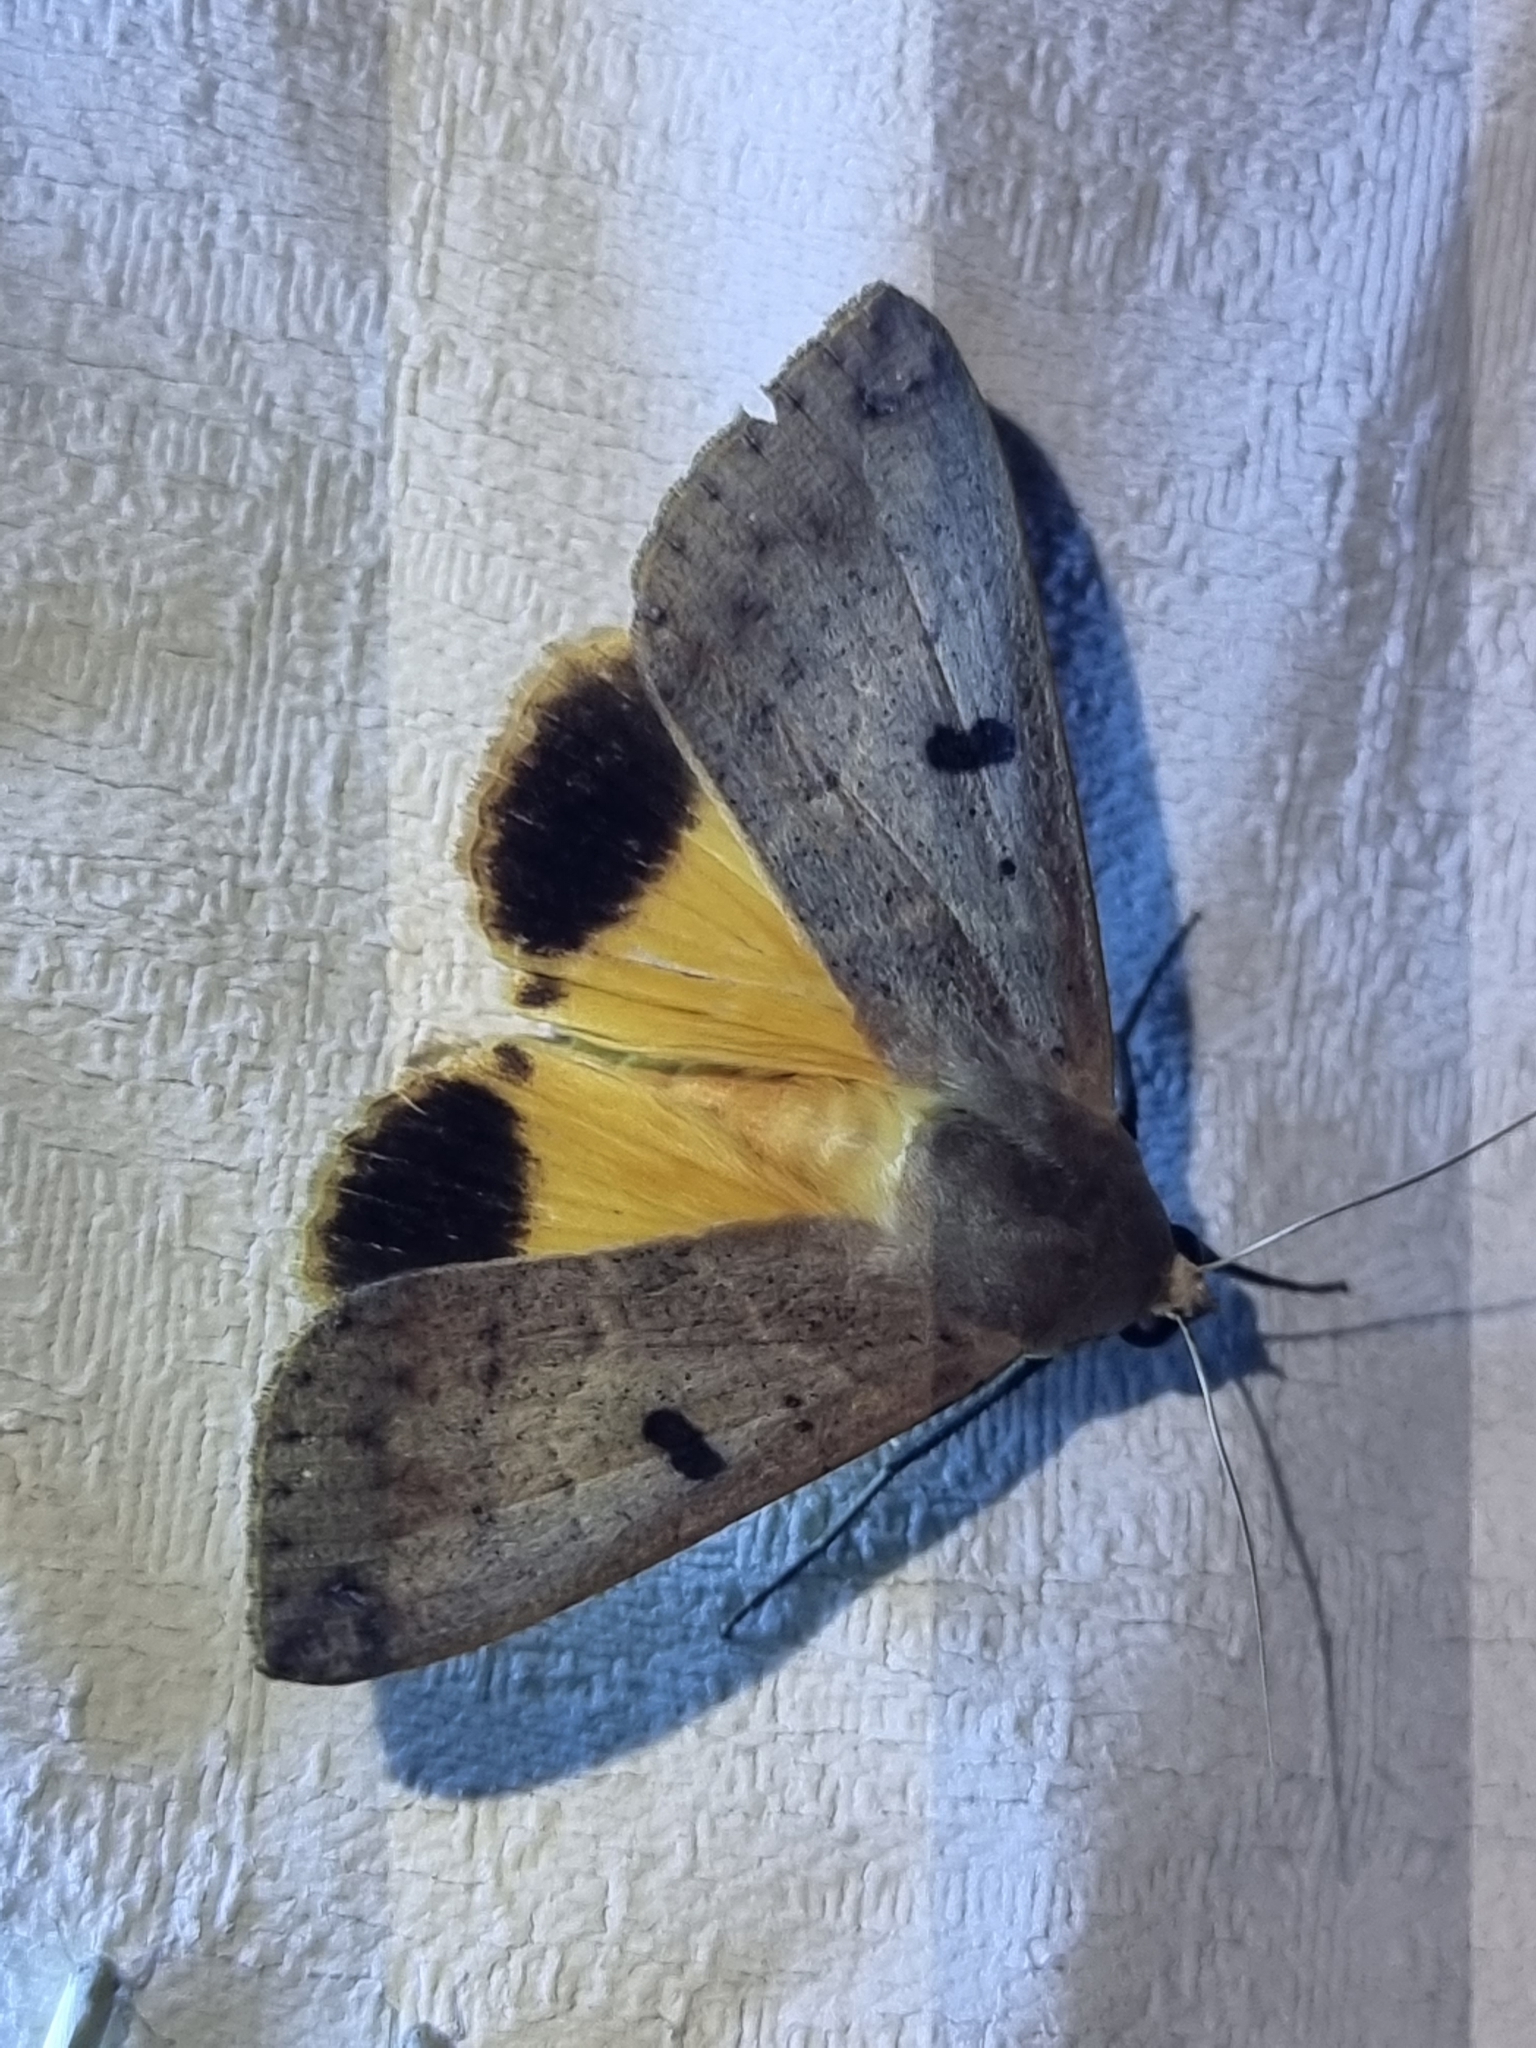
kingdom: Animalia
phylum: Arthropoda
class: Insecta
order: Lepidoptera
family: Erebidae
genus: Ophiusa
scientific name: Ophiusa disjungens
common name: Moth
